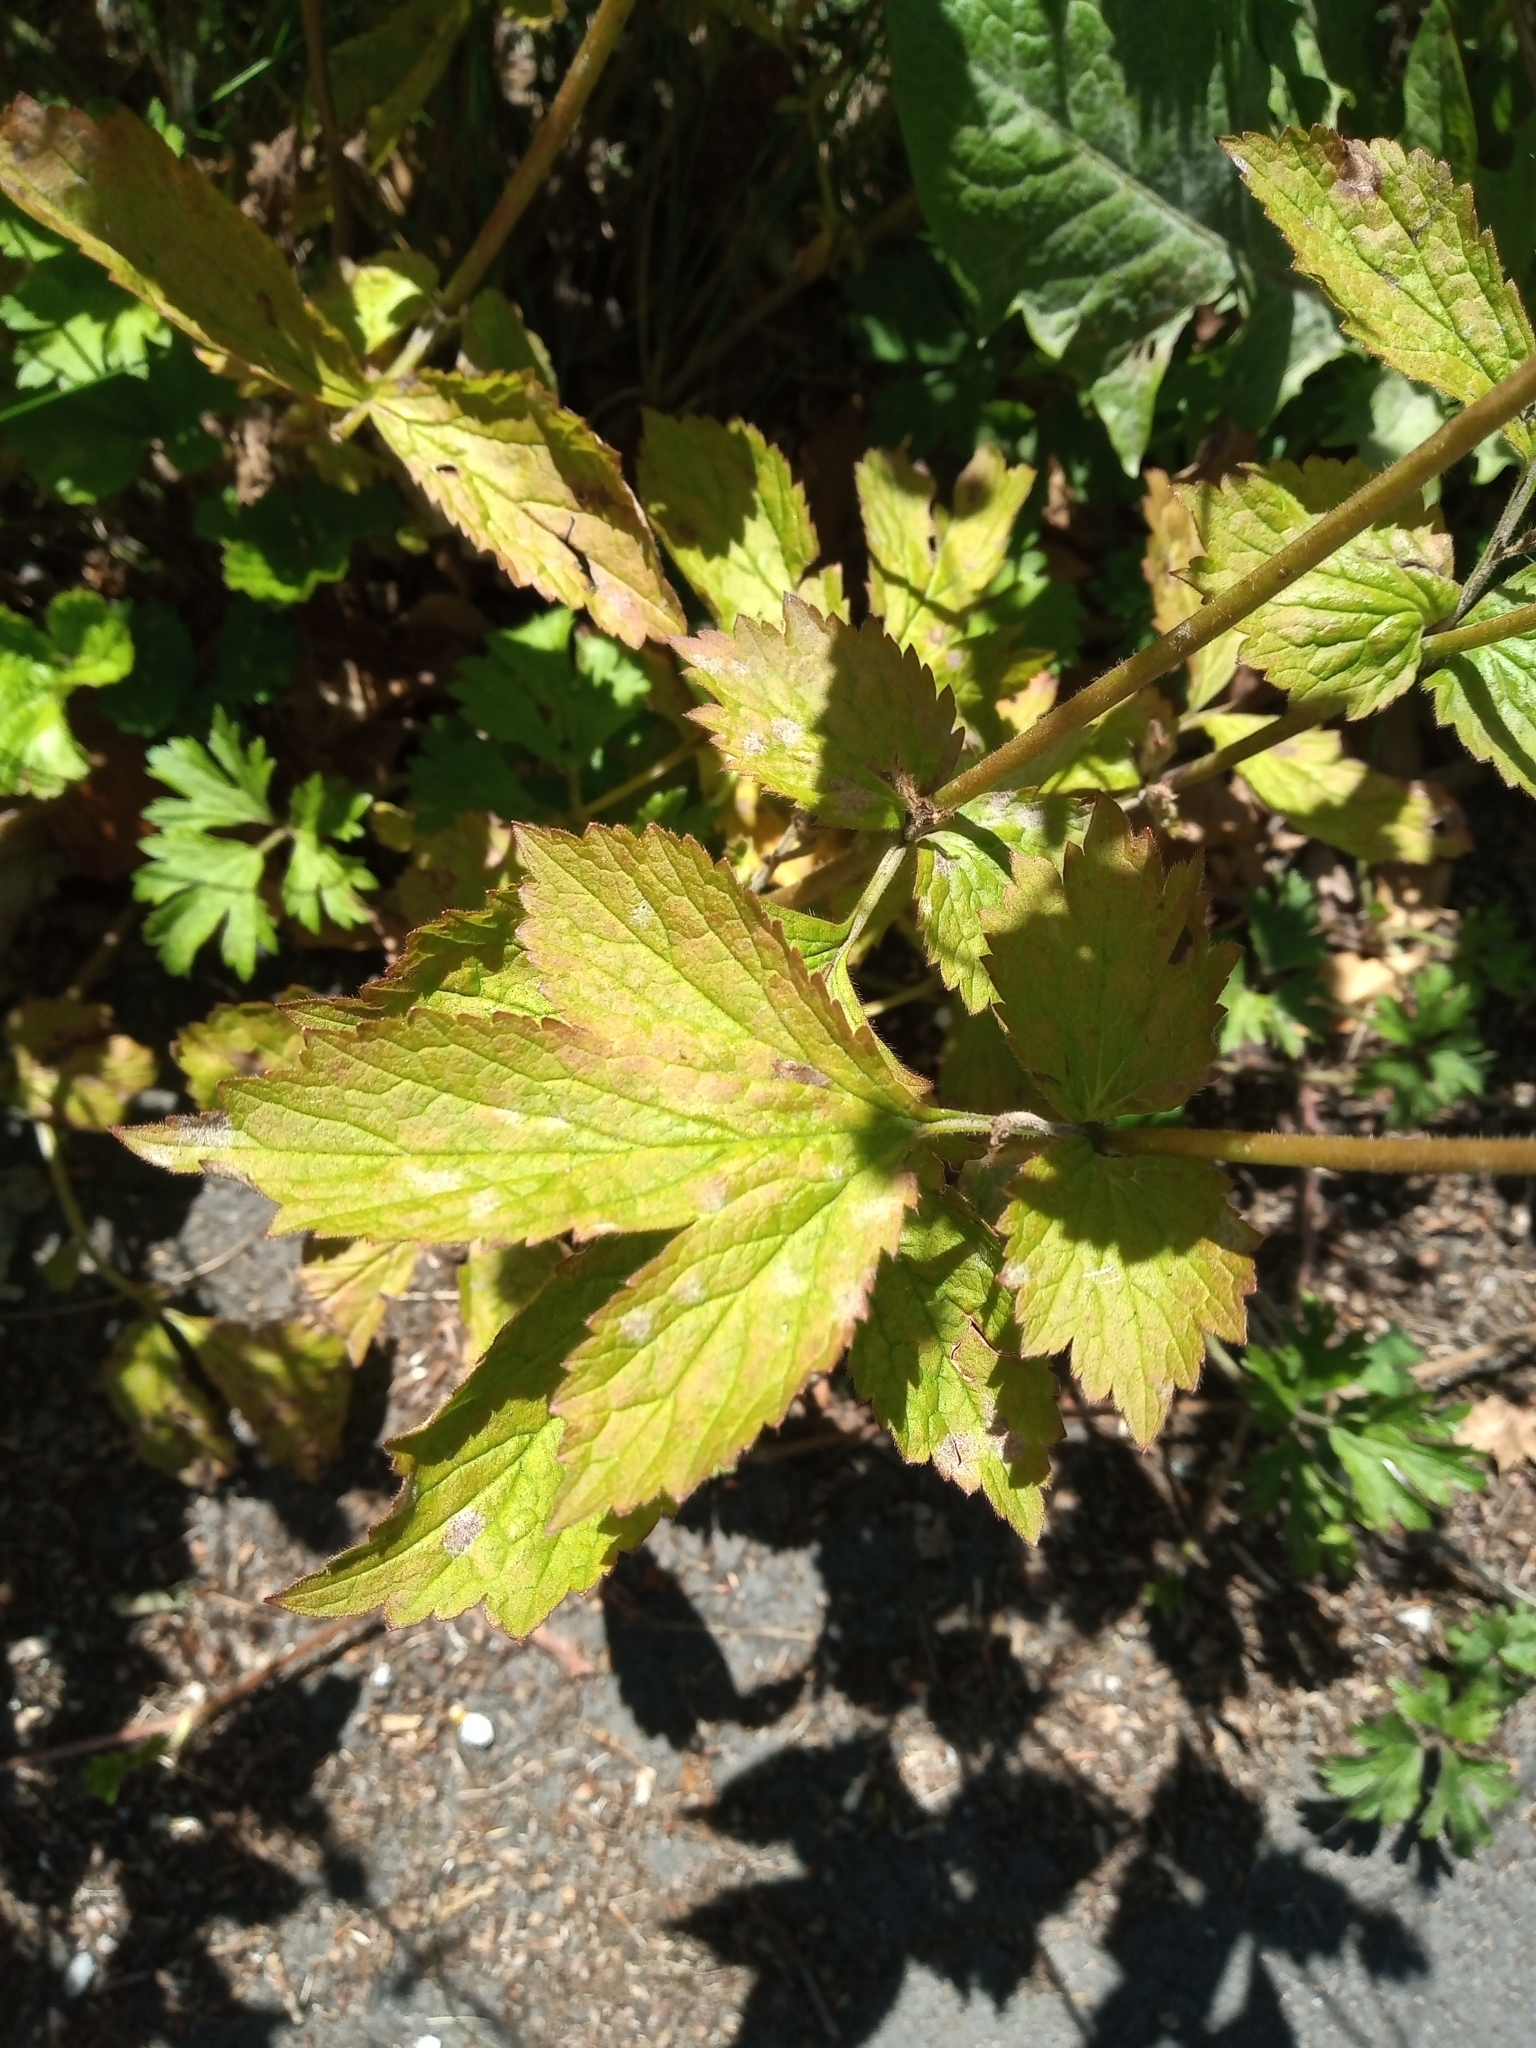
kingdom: Plantae
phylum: Tracheophyta
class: Magnoliopsida
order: Rosales
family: Rosaceae
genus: Geum
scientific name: Geum urbanum
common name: Wood avens
